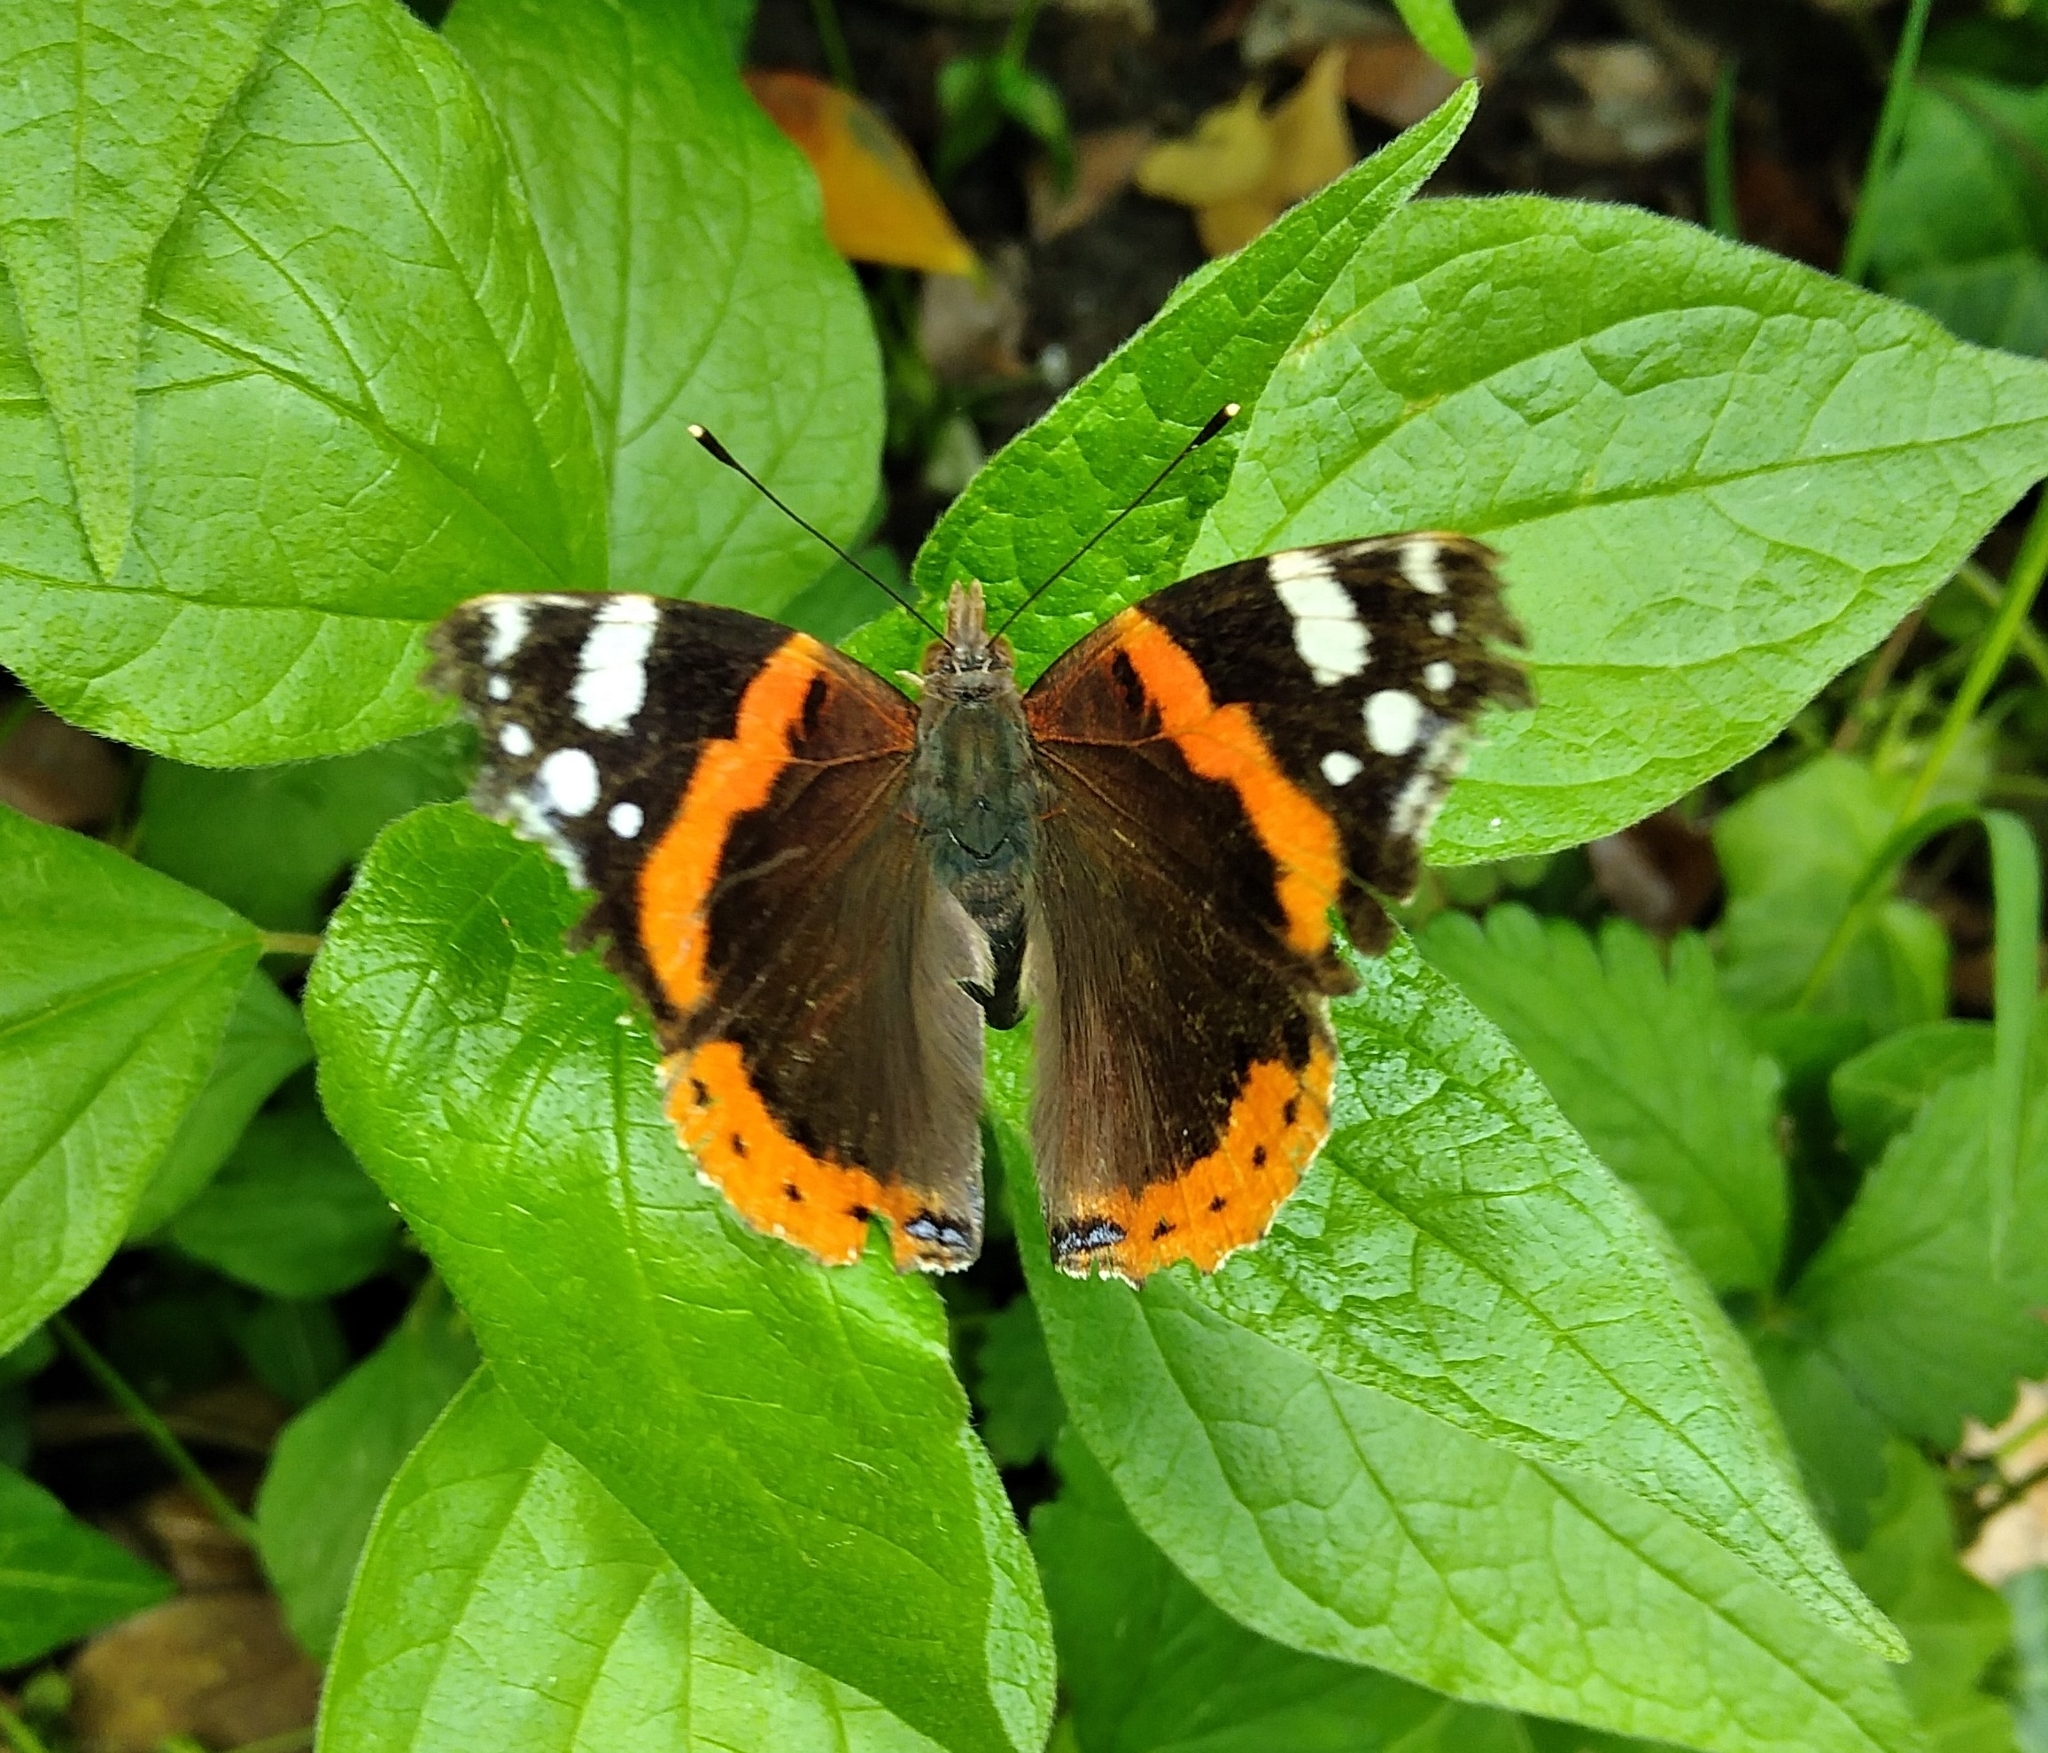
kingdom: Animalia
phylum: Arthropoda
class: Insecta
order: Lepidoptera
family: Nymphalidae
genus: Vanessa
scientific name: Vanessa atalanta
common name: Red admiral
